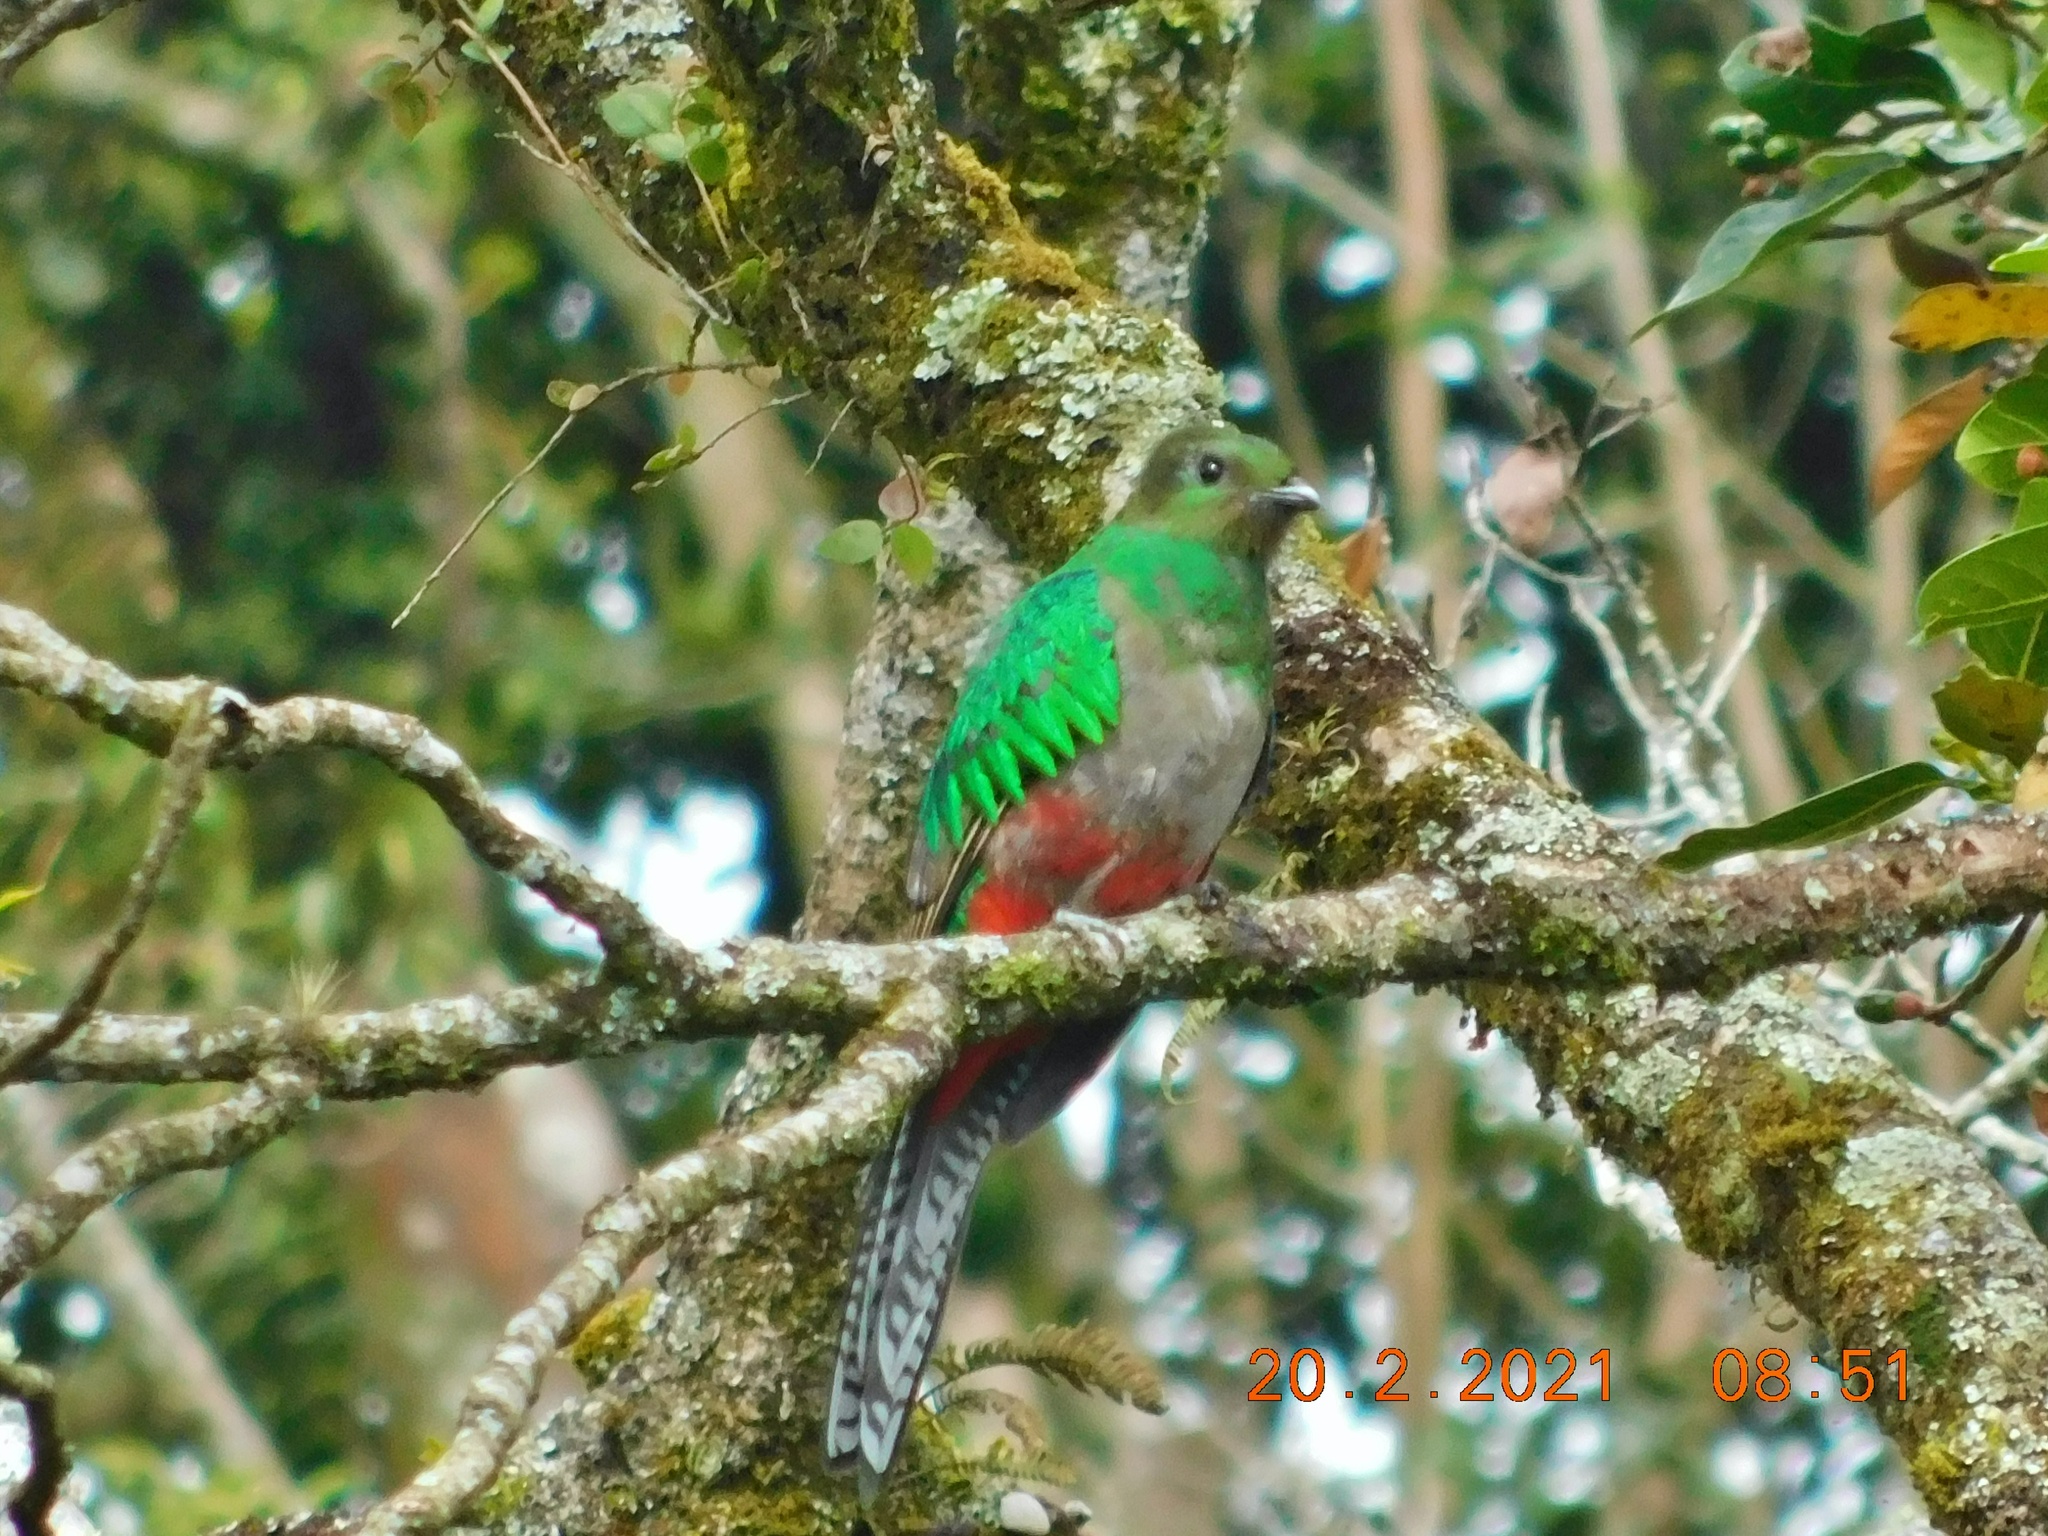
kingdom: Animalia
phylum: Chordata
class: Aves
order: Trogoniformes
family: Trogonidae
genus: Pharomachrus
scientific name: Pharomachrus mocinno
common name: Resplendent quetzal
